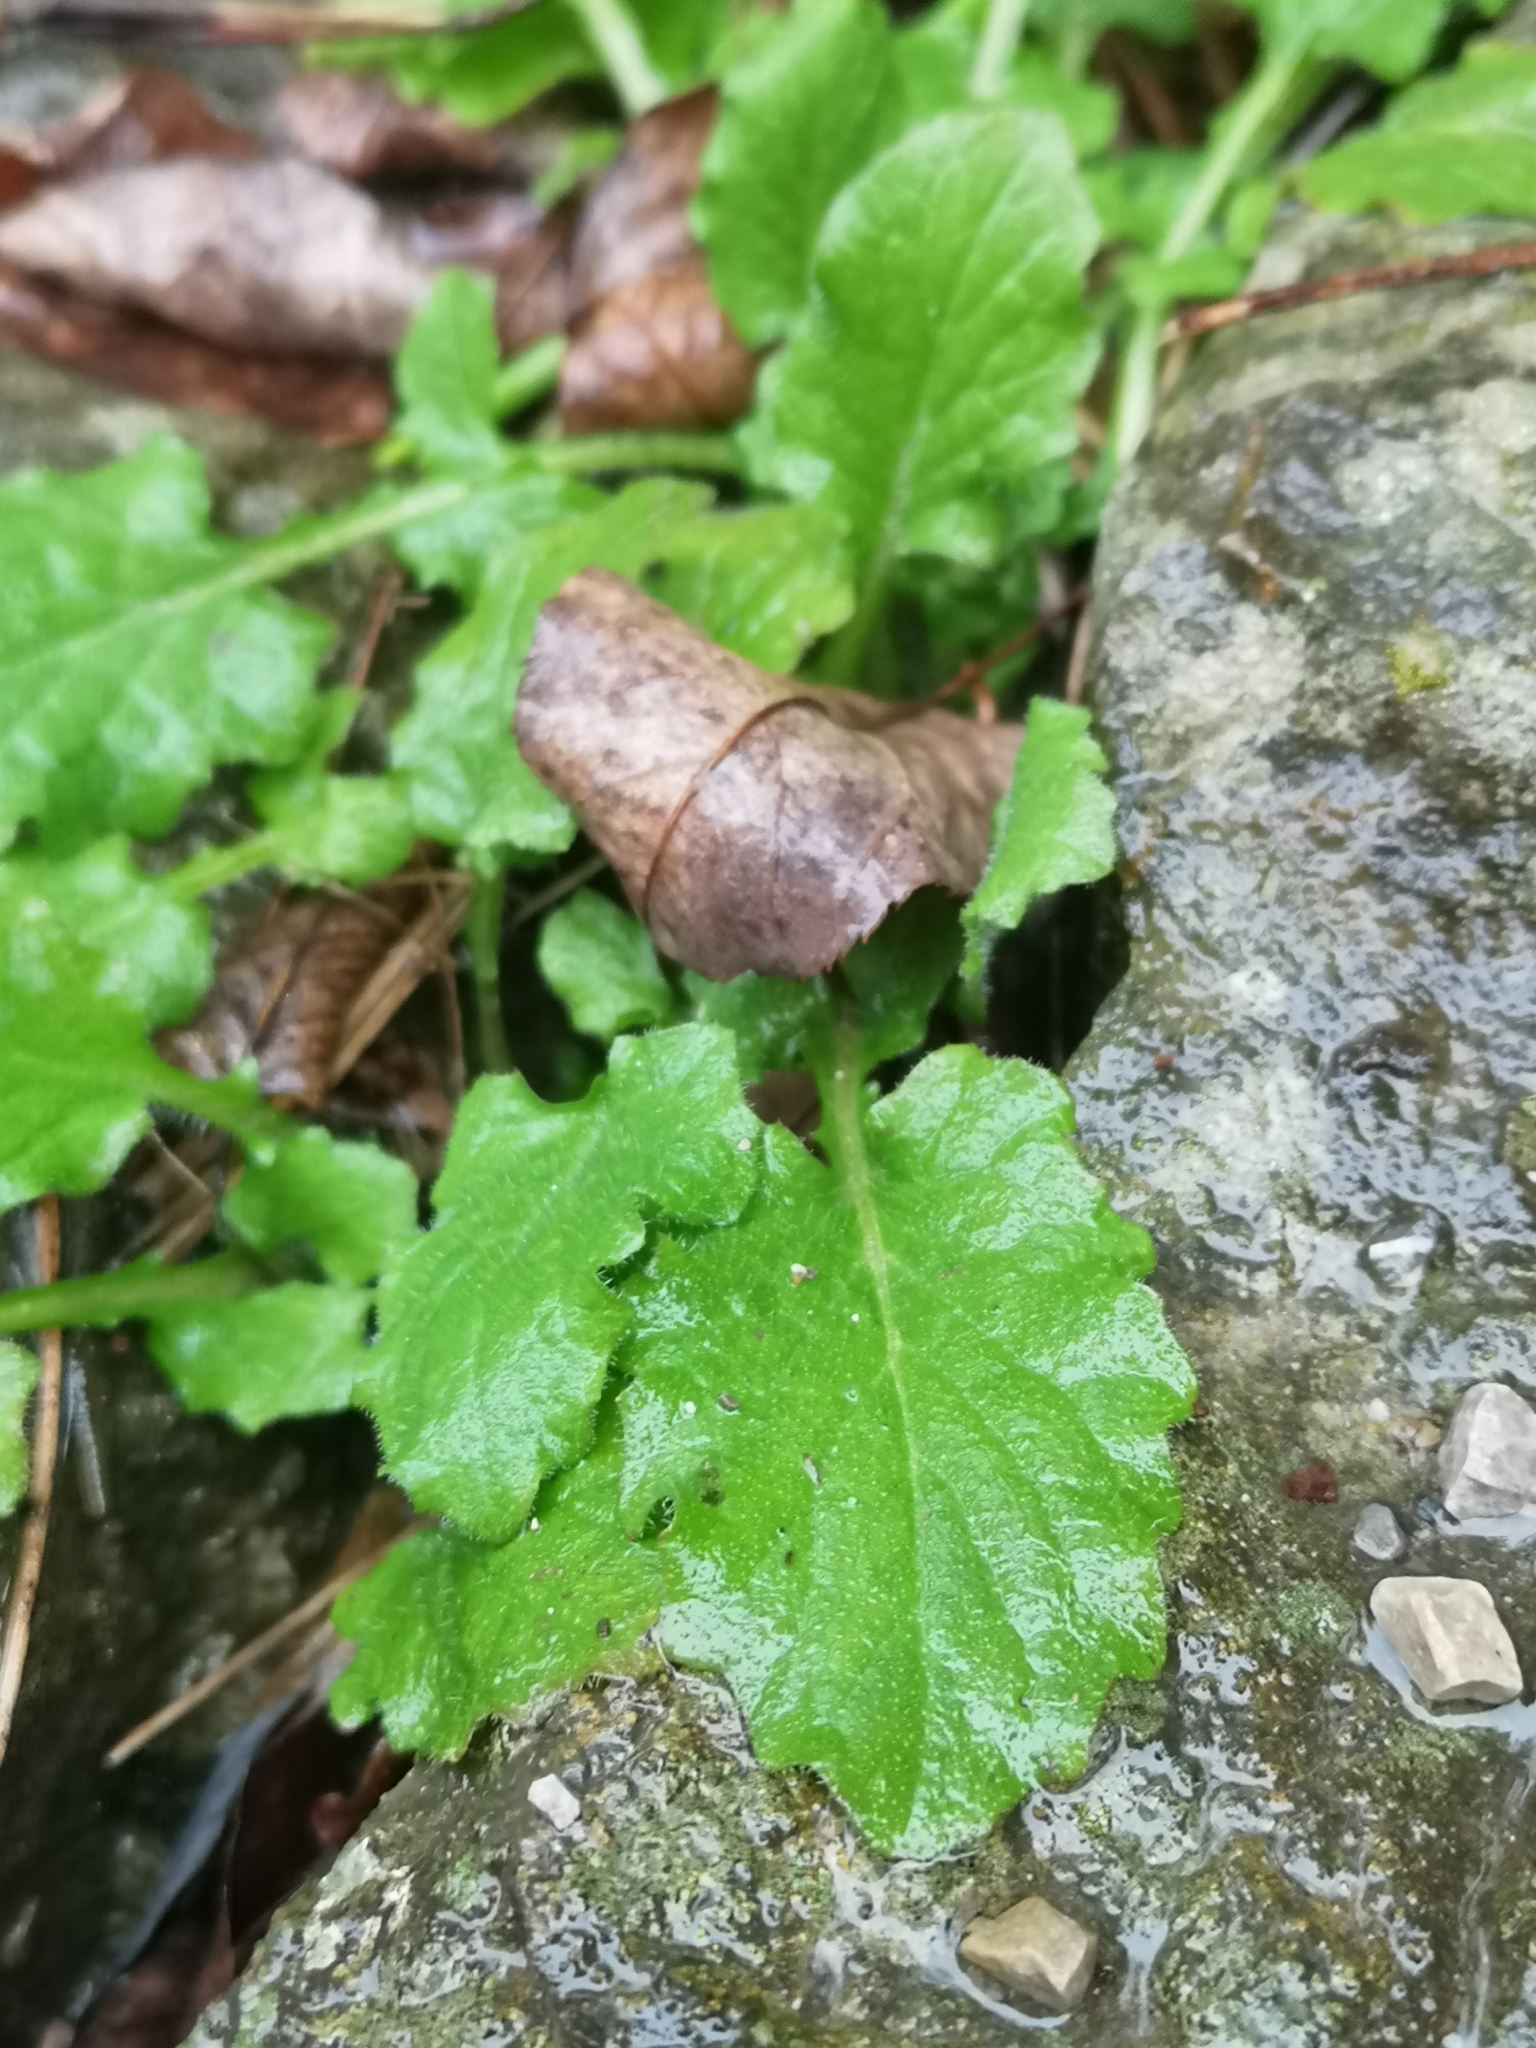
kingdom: Plantae
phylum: Tracheophyta
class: Magnoliopsida
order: Asterales
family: Asteraceae
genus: Lapsana
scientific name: Lapsana communis
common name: Nipplewort
